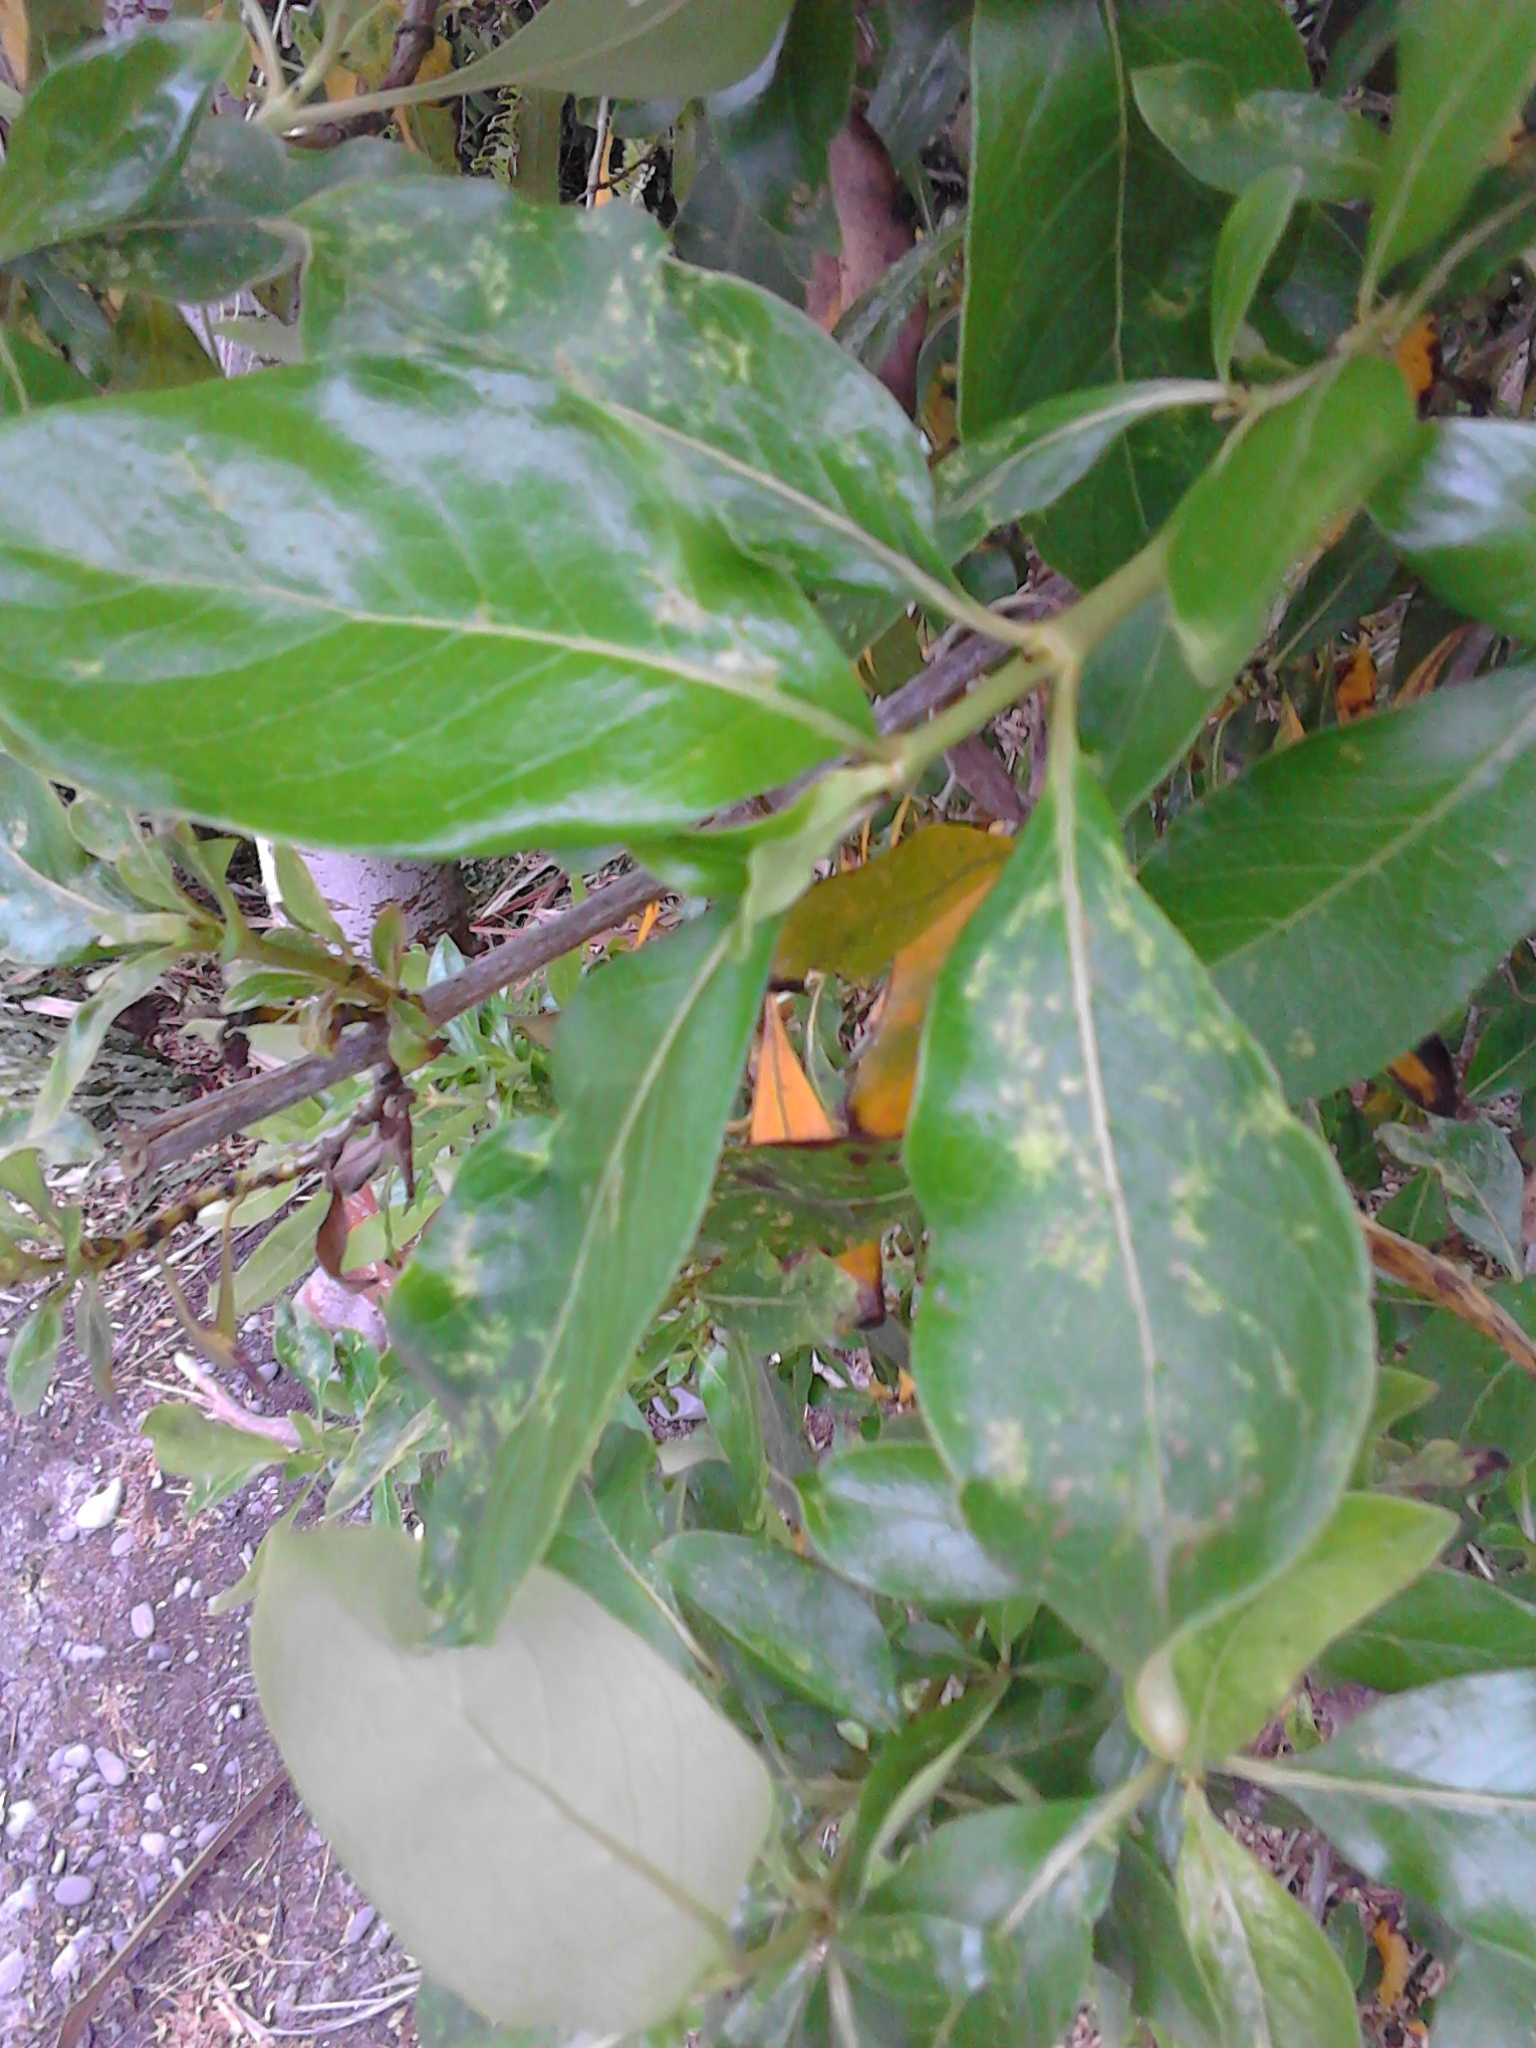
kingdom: Plantae
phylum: Tracheophyta
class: Magnoliopsida
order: Gentianales
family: Rubiaceae
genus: Coprosma
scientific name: Coprosma robusta
